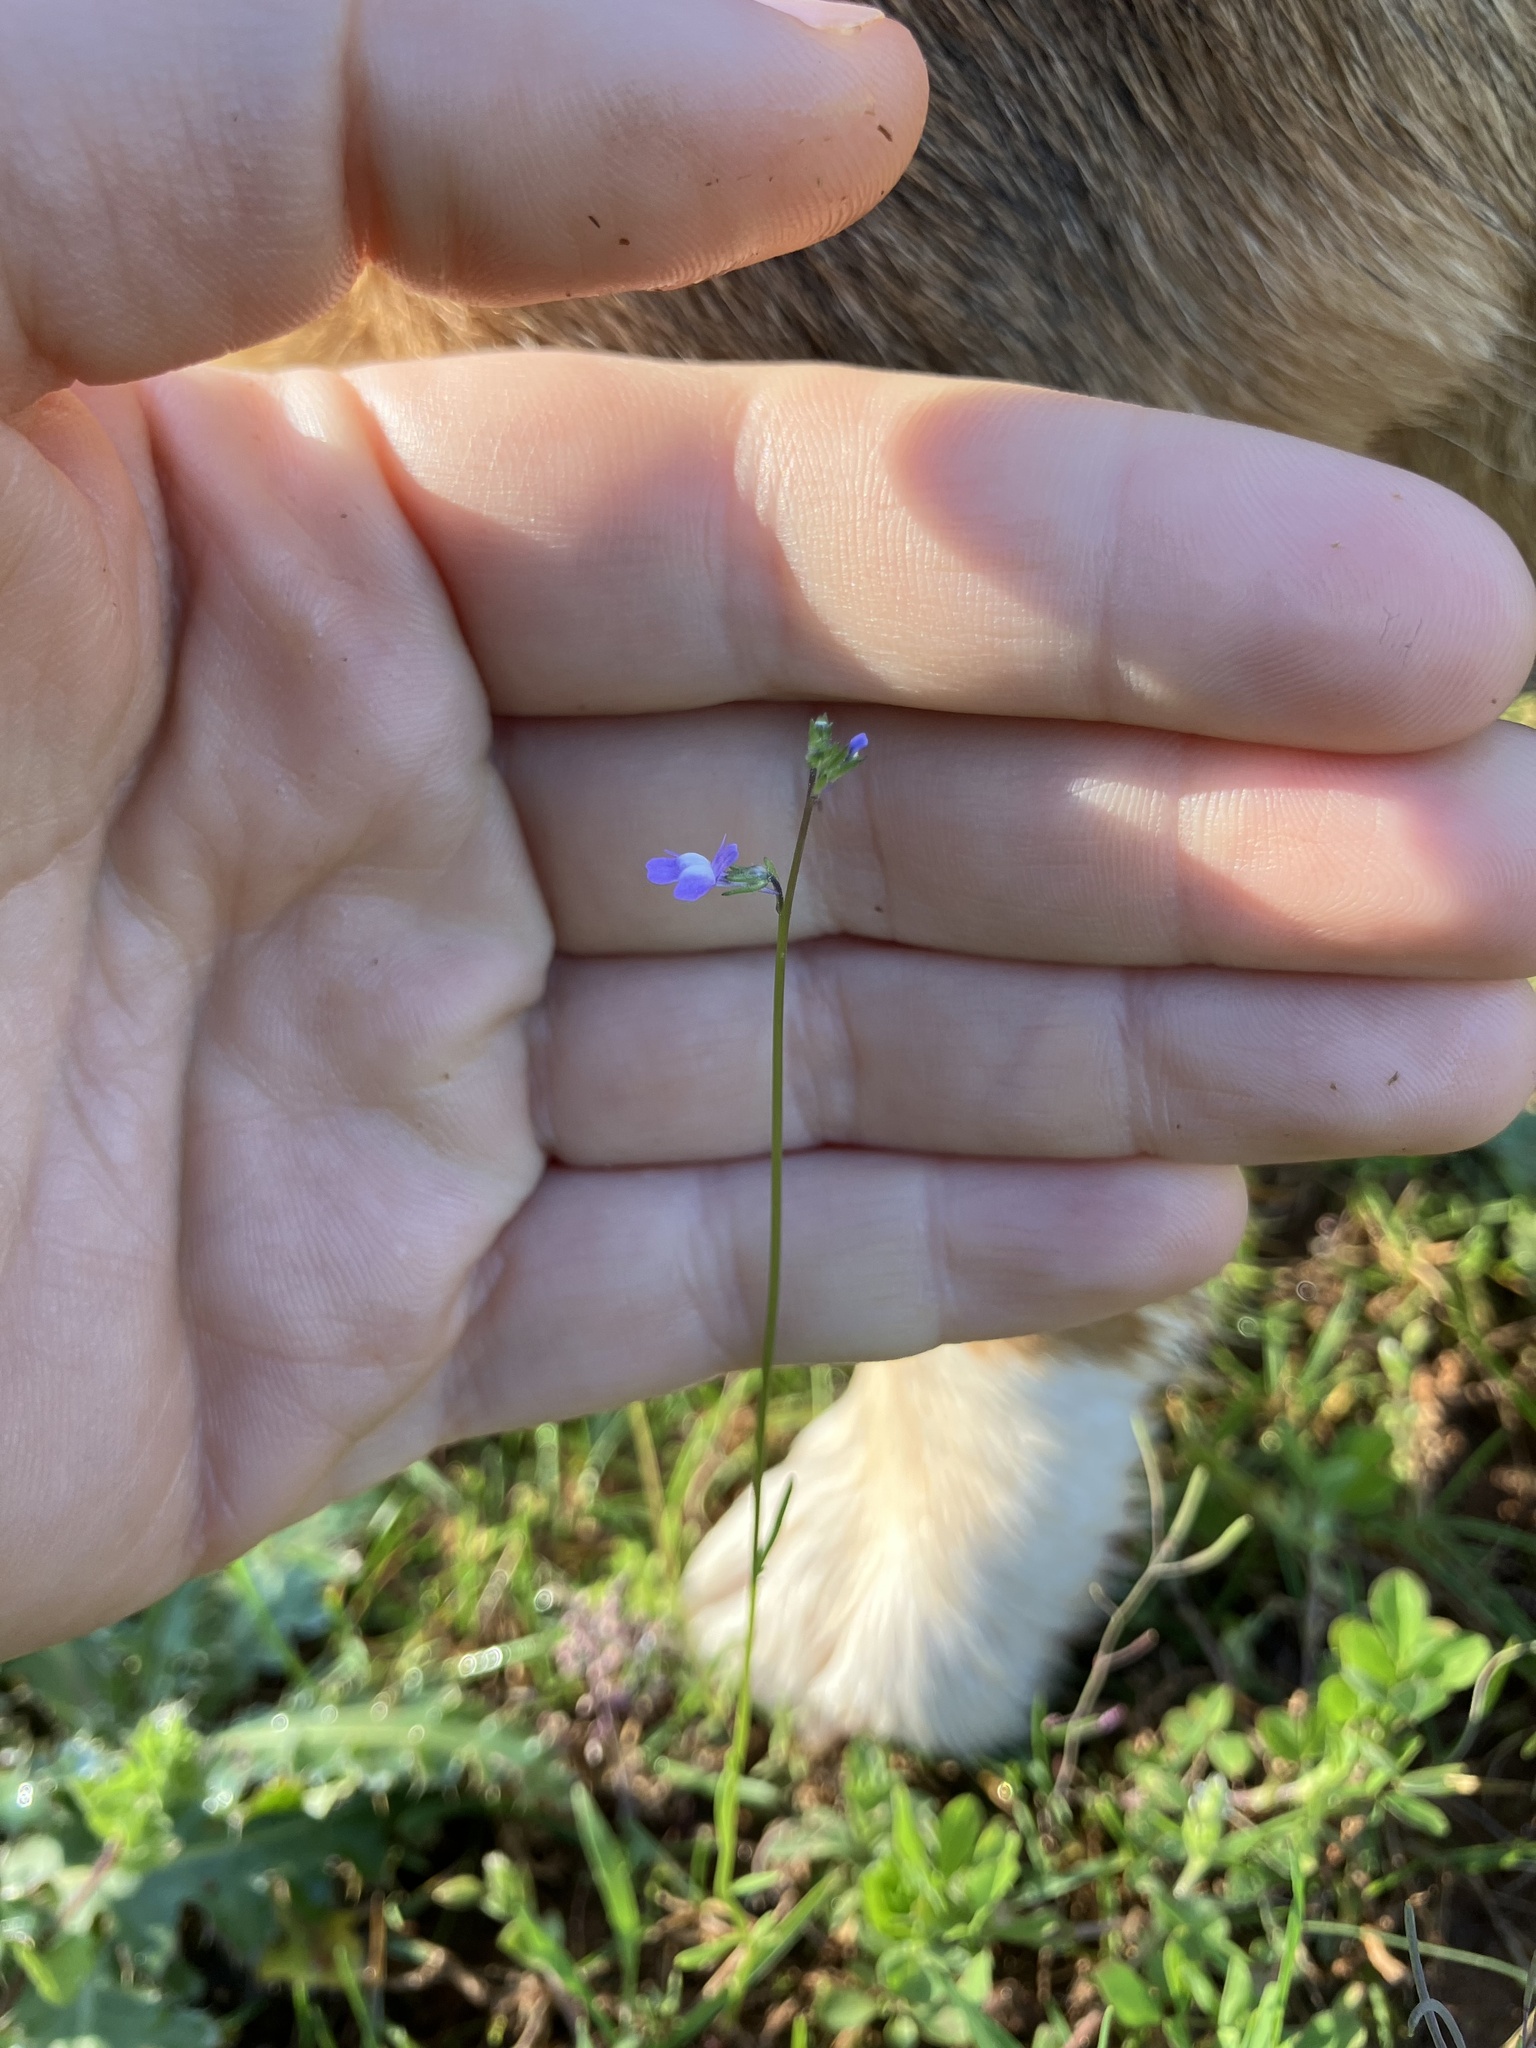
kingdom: Plantae
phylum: Tracheophyta
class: Magnoliopsida
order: Lamiales
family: Plantaginaceae
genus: Nuttallanthus
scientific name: Nuttallanthus canadensis
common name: Blue toadflax
